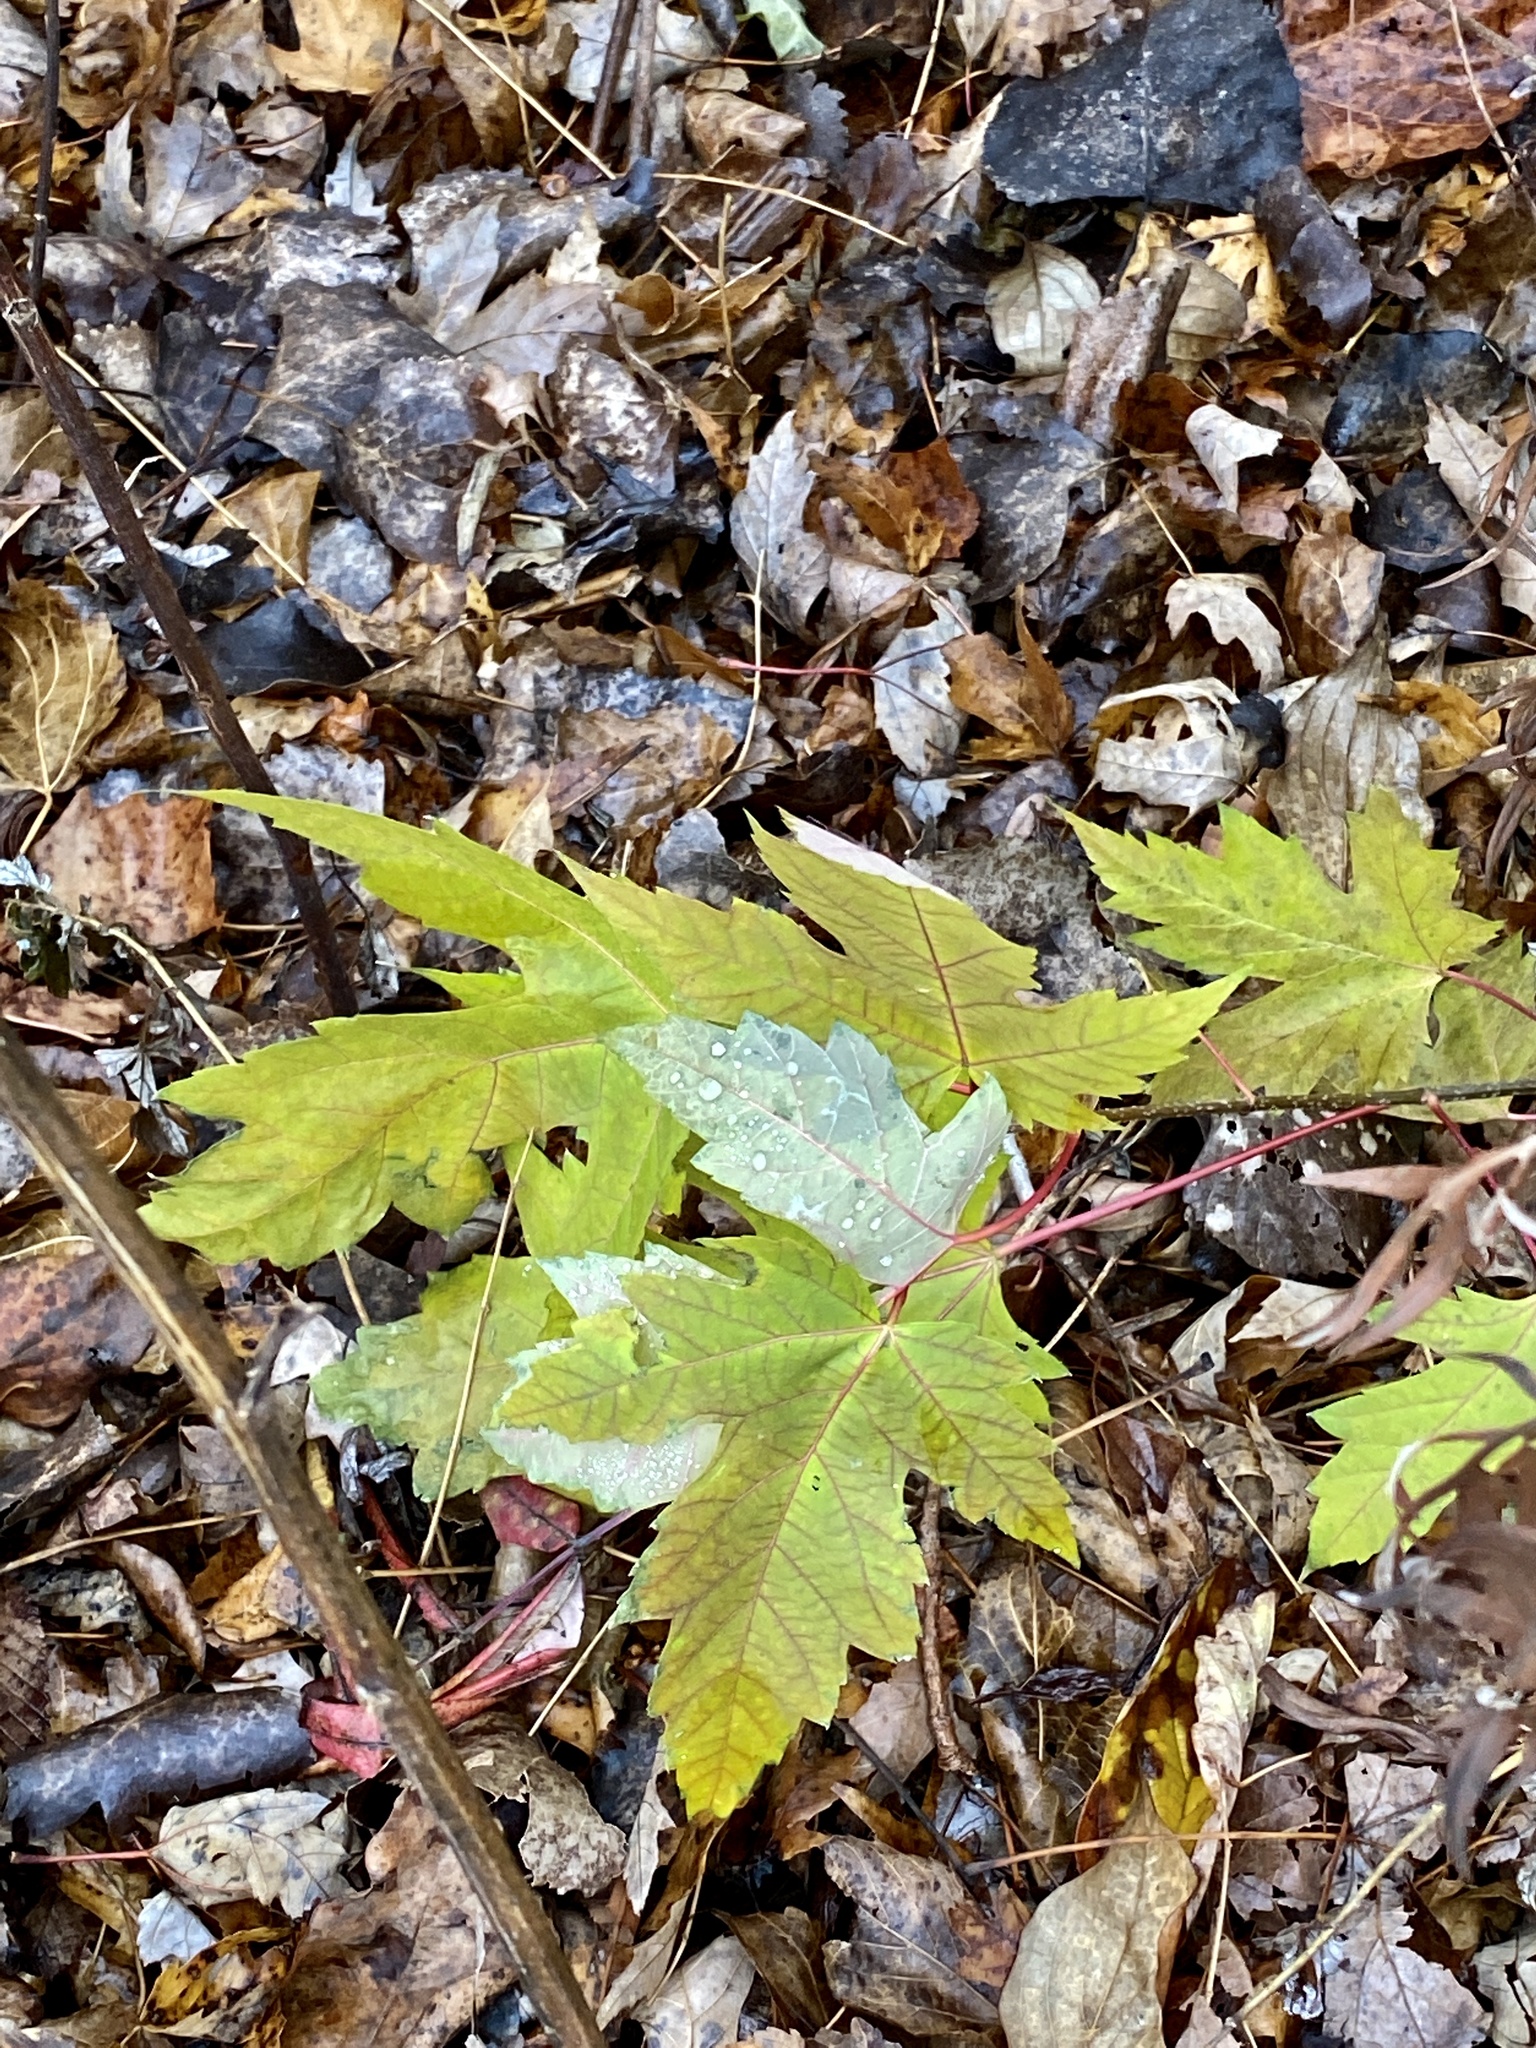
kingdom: Plantae
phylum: Tracheophyta
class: Magnoliopsida
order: Sapindales
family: Sapindaceae
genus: Acer
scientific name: Acer saccharinum
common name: Silver maple
